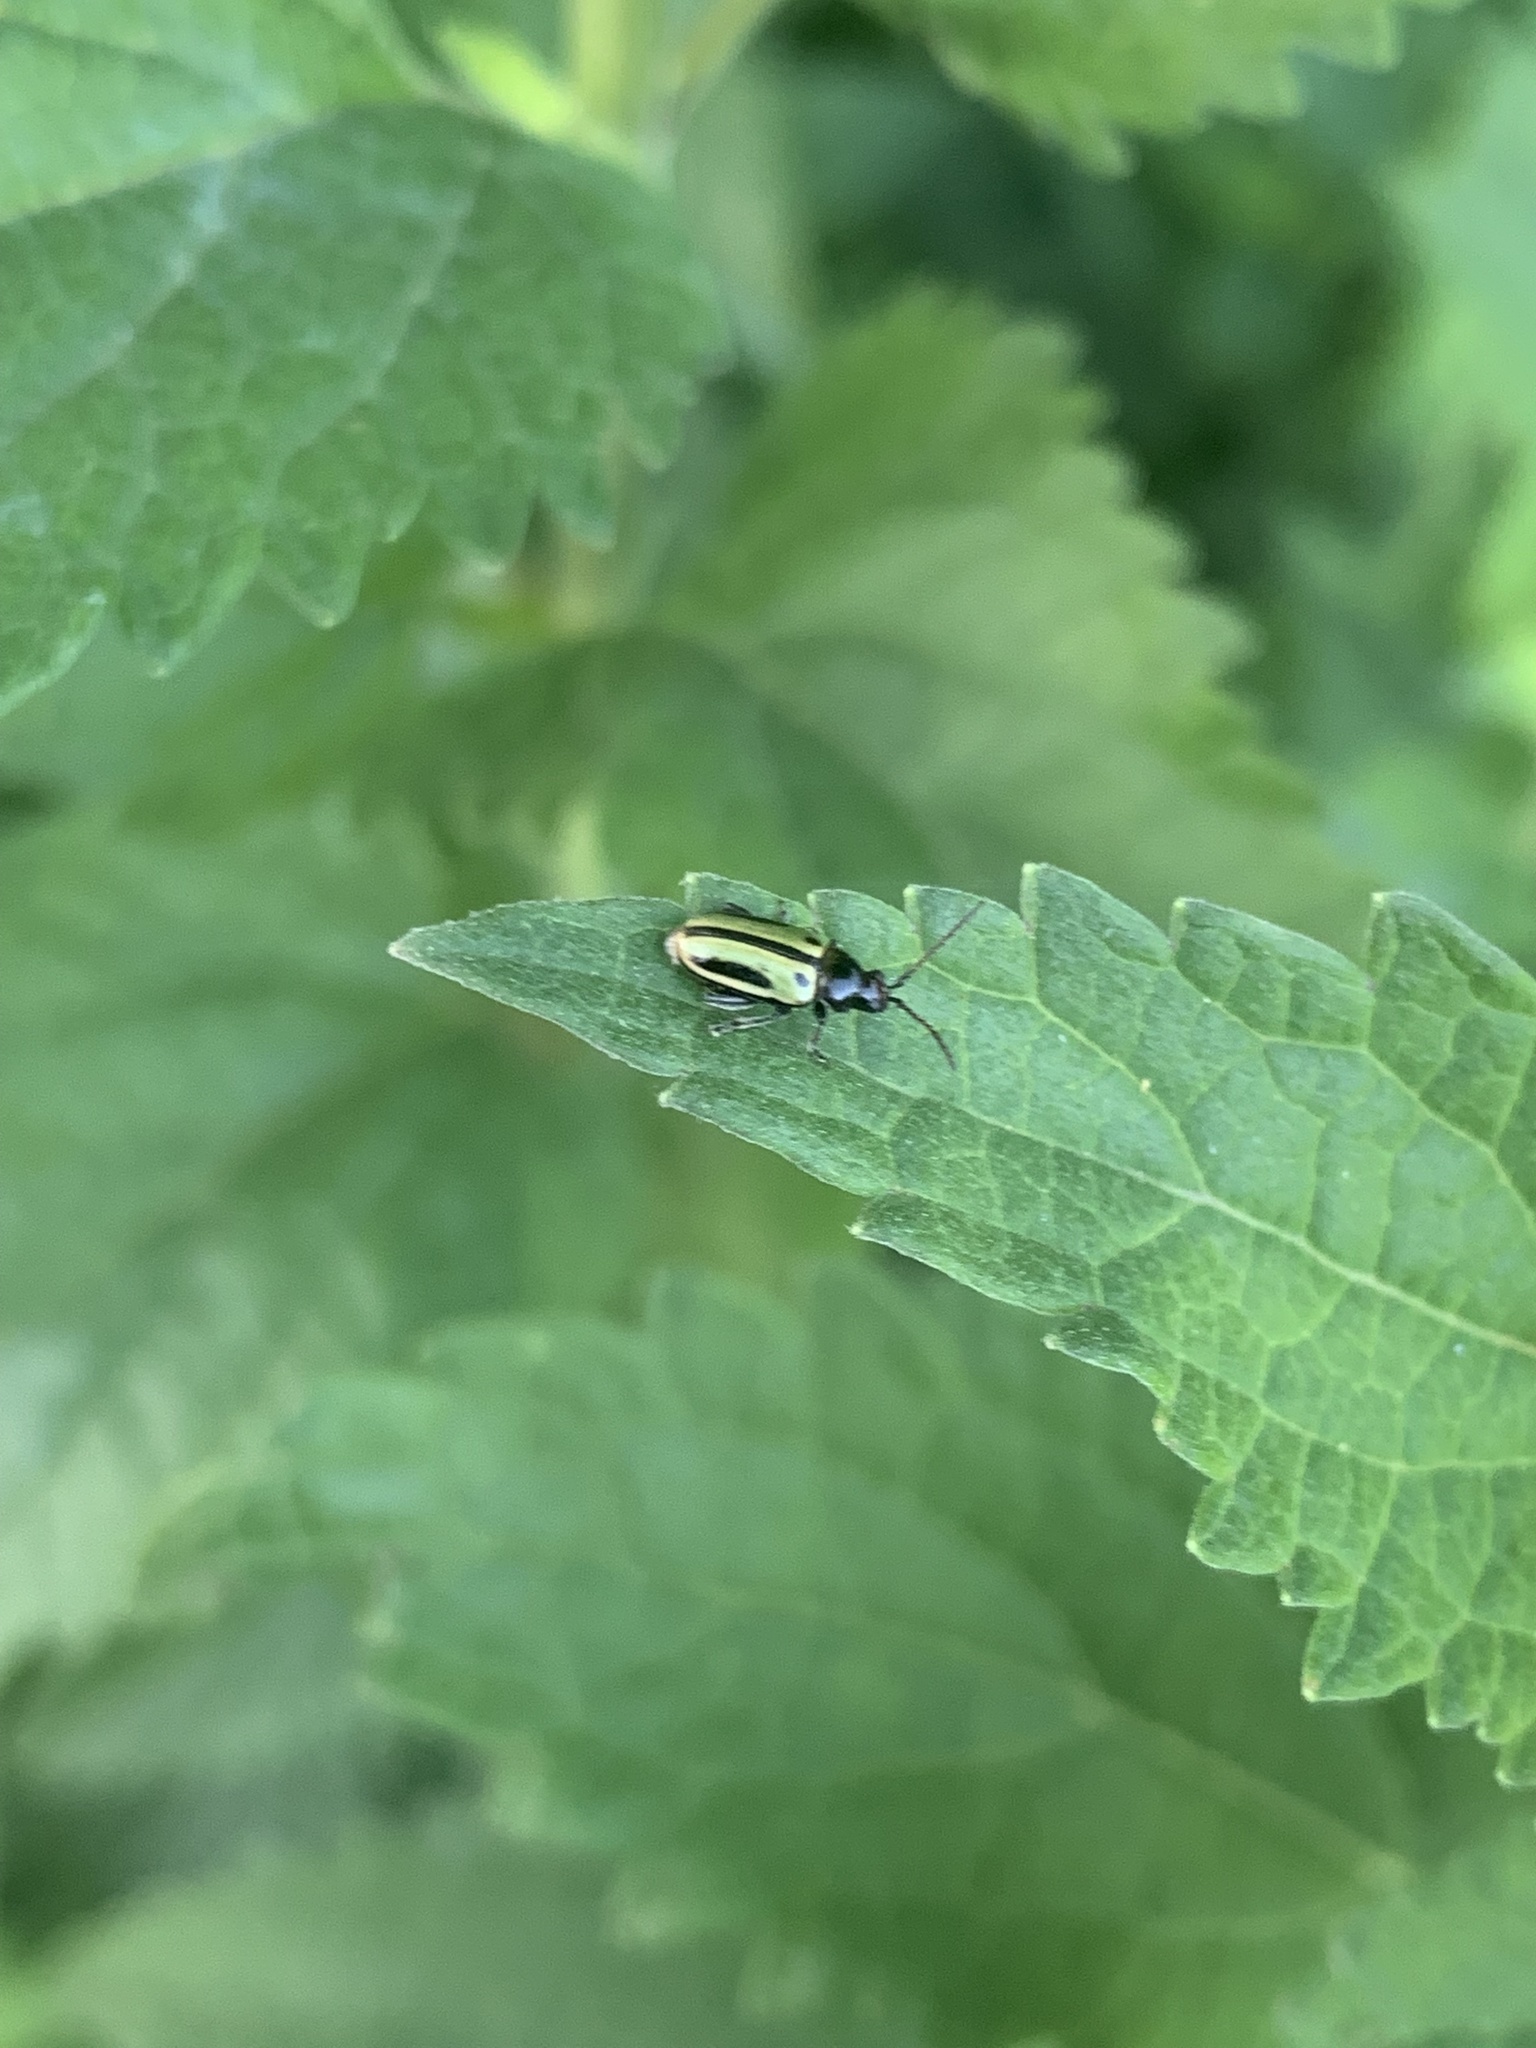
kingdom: Animalia
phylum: Arthropoda
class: Insecta
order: Coleoptera
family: Chrysomelidae
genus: Disonychodes
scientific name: Disonychodes
